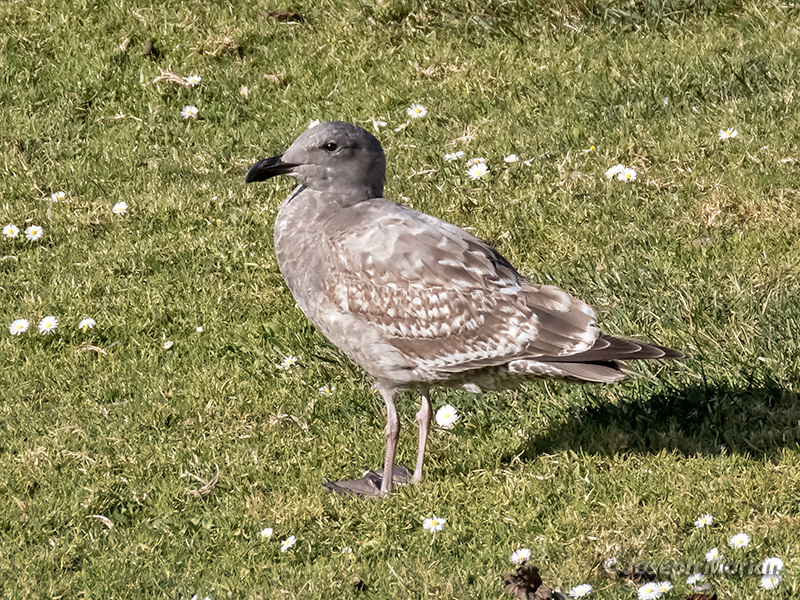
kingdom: Animalia
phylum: Chordata
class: Aves
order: Charadriiformes
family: Laridae
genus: Larus
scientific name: Larus occidentalis
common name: Western gull
